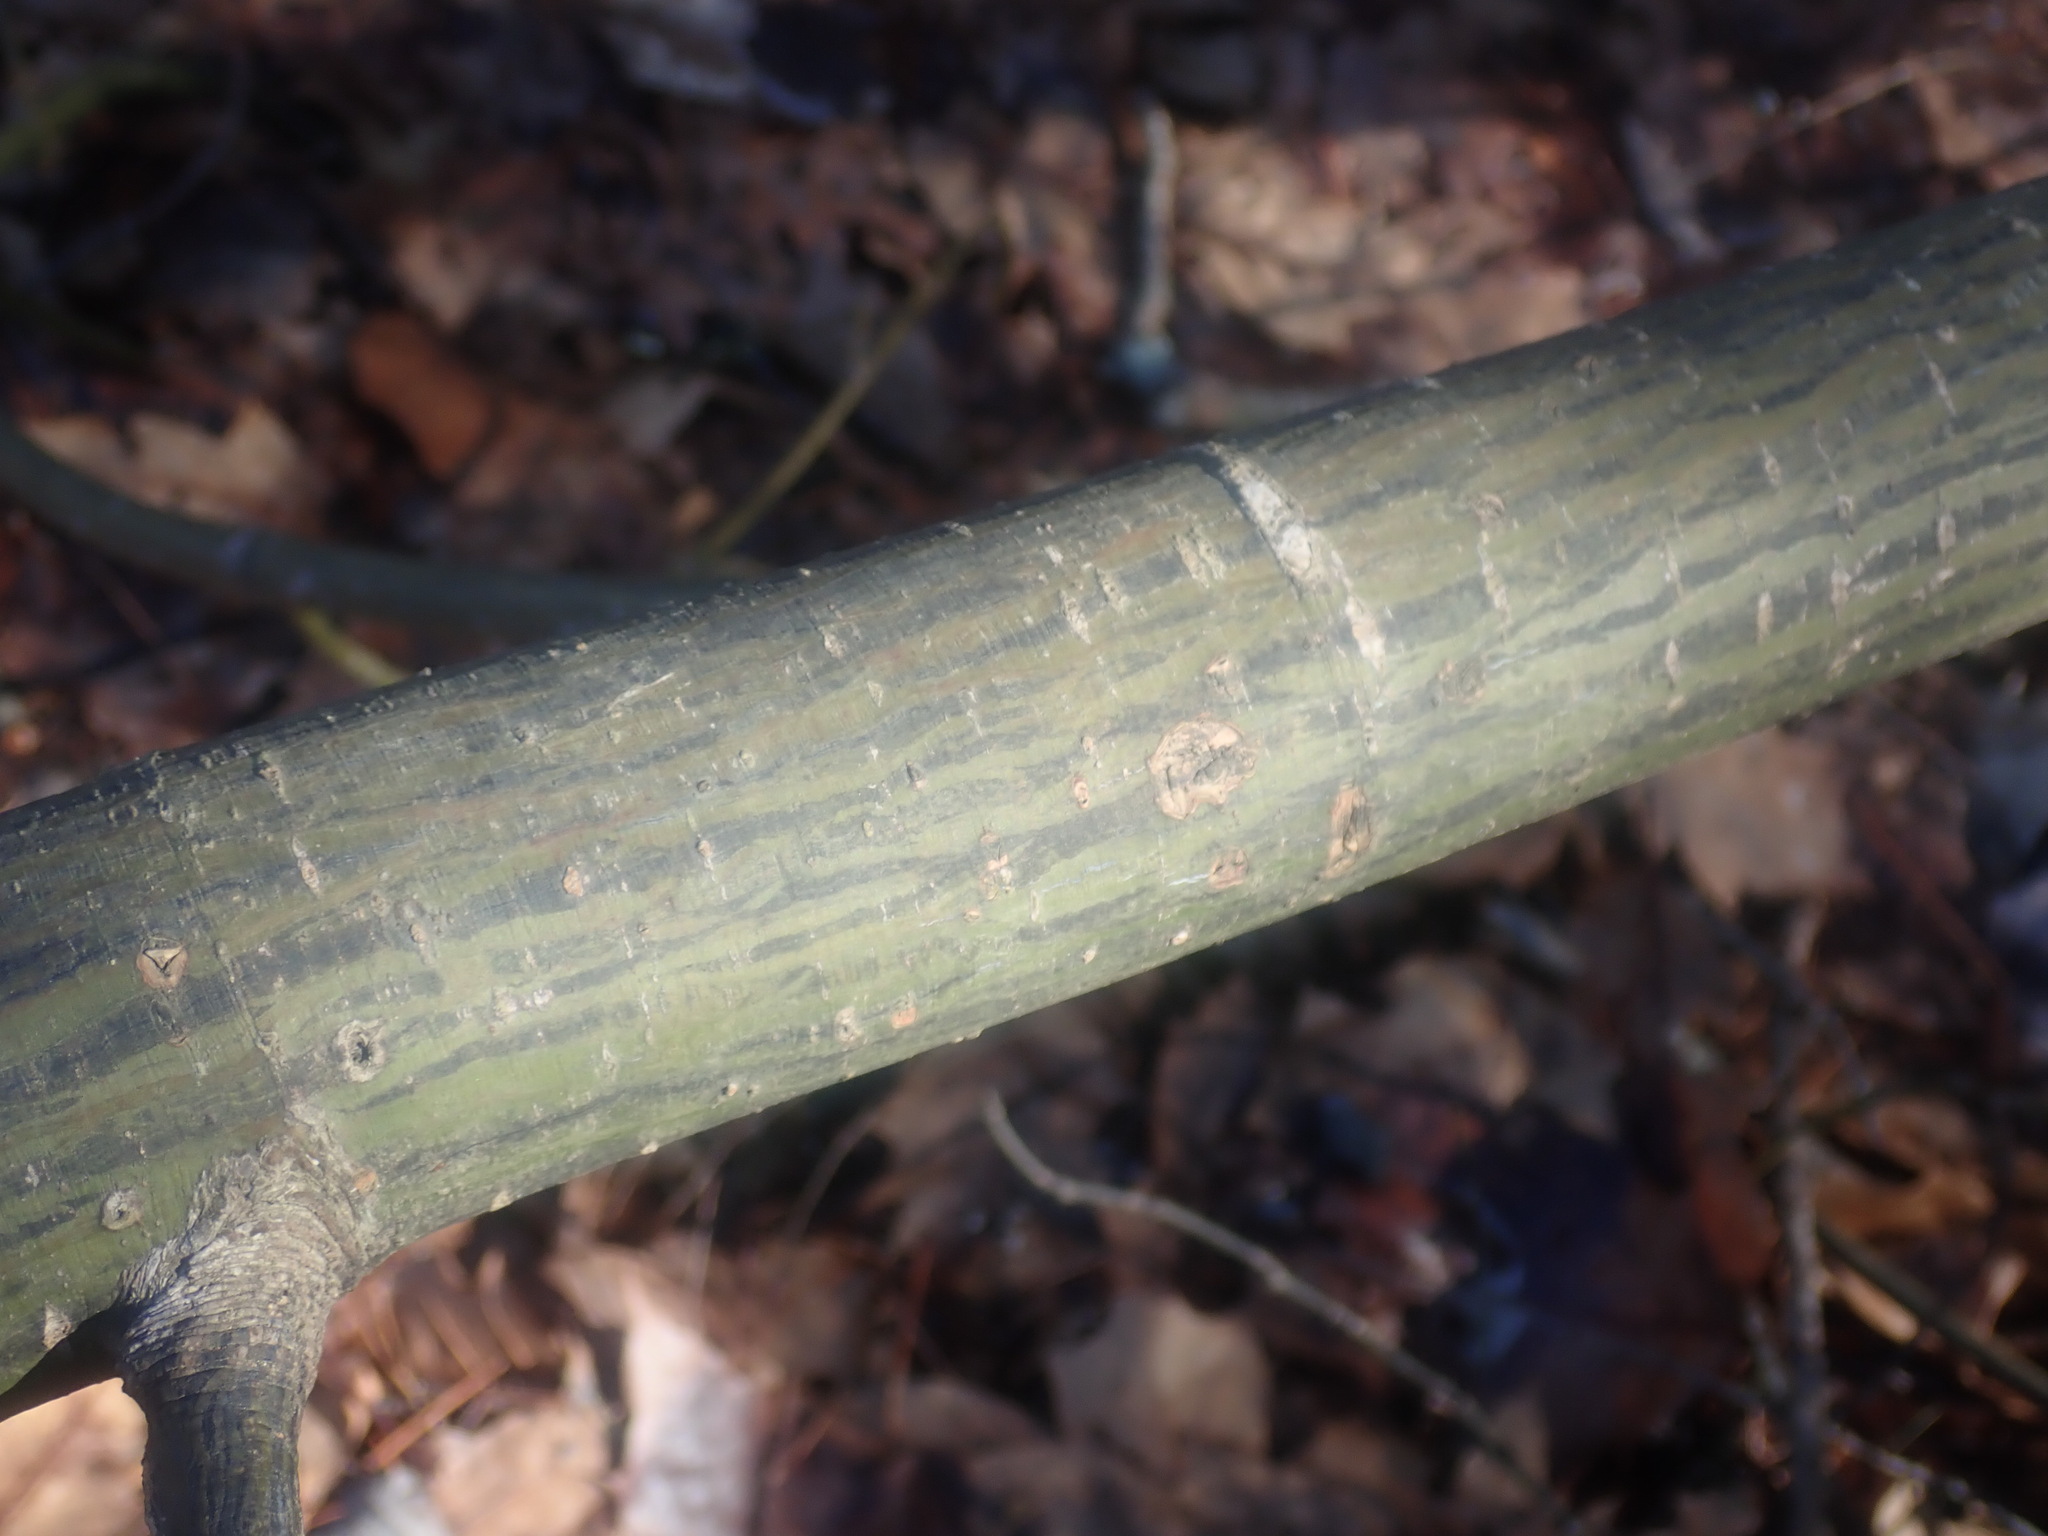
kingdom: Plantae
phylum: Tracheophyta
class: Magnoliopsida
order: Sapindales
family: Sapindaceae
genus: Acer
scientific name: Acer pensylvanicum
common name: Moosewood
